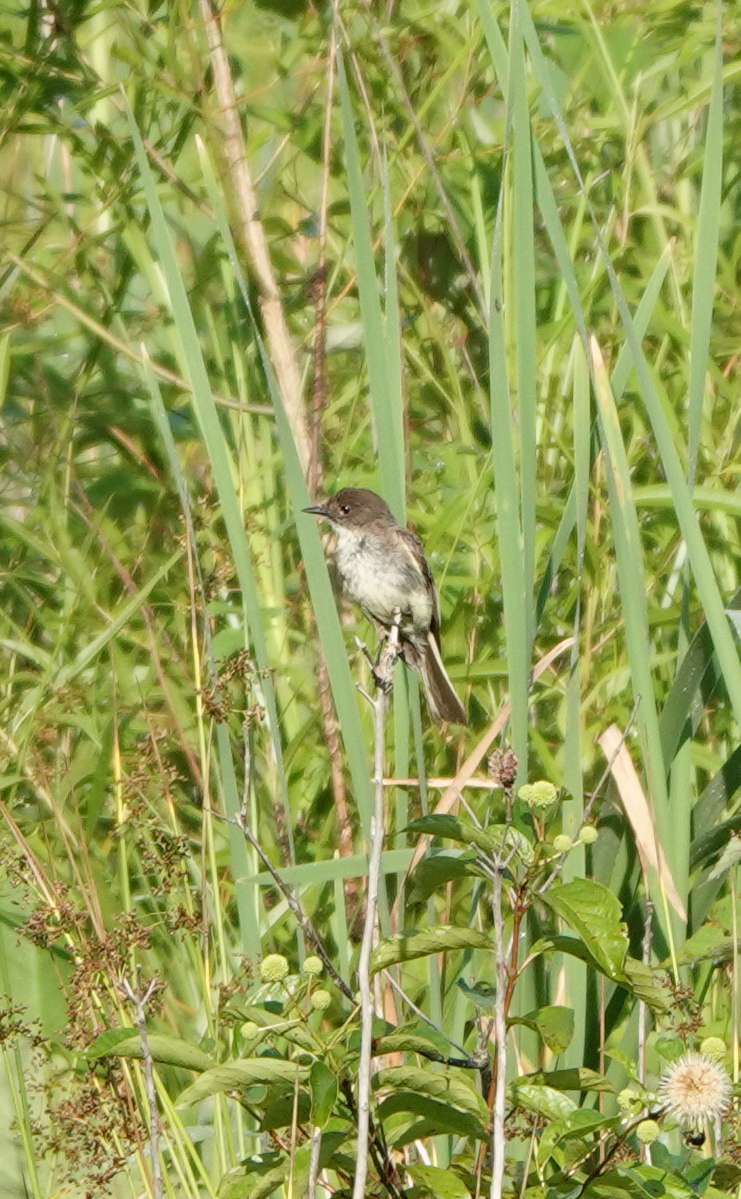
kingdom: Animalia
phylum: Chordata
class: Aves
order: Passeriformes
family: Tyrannidae
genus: Sayornis
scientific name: Sayornis phoebe
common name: Eastern phoebe
